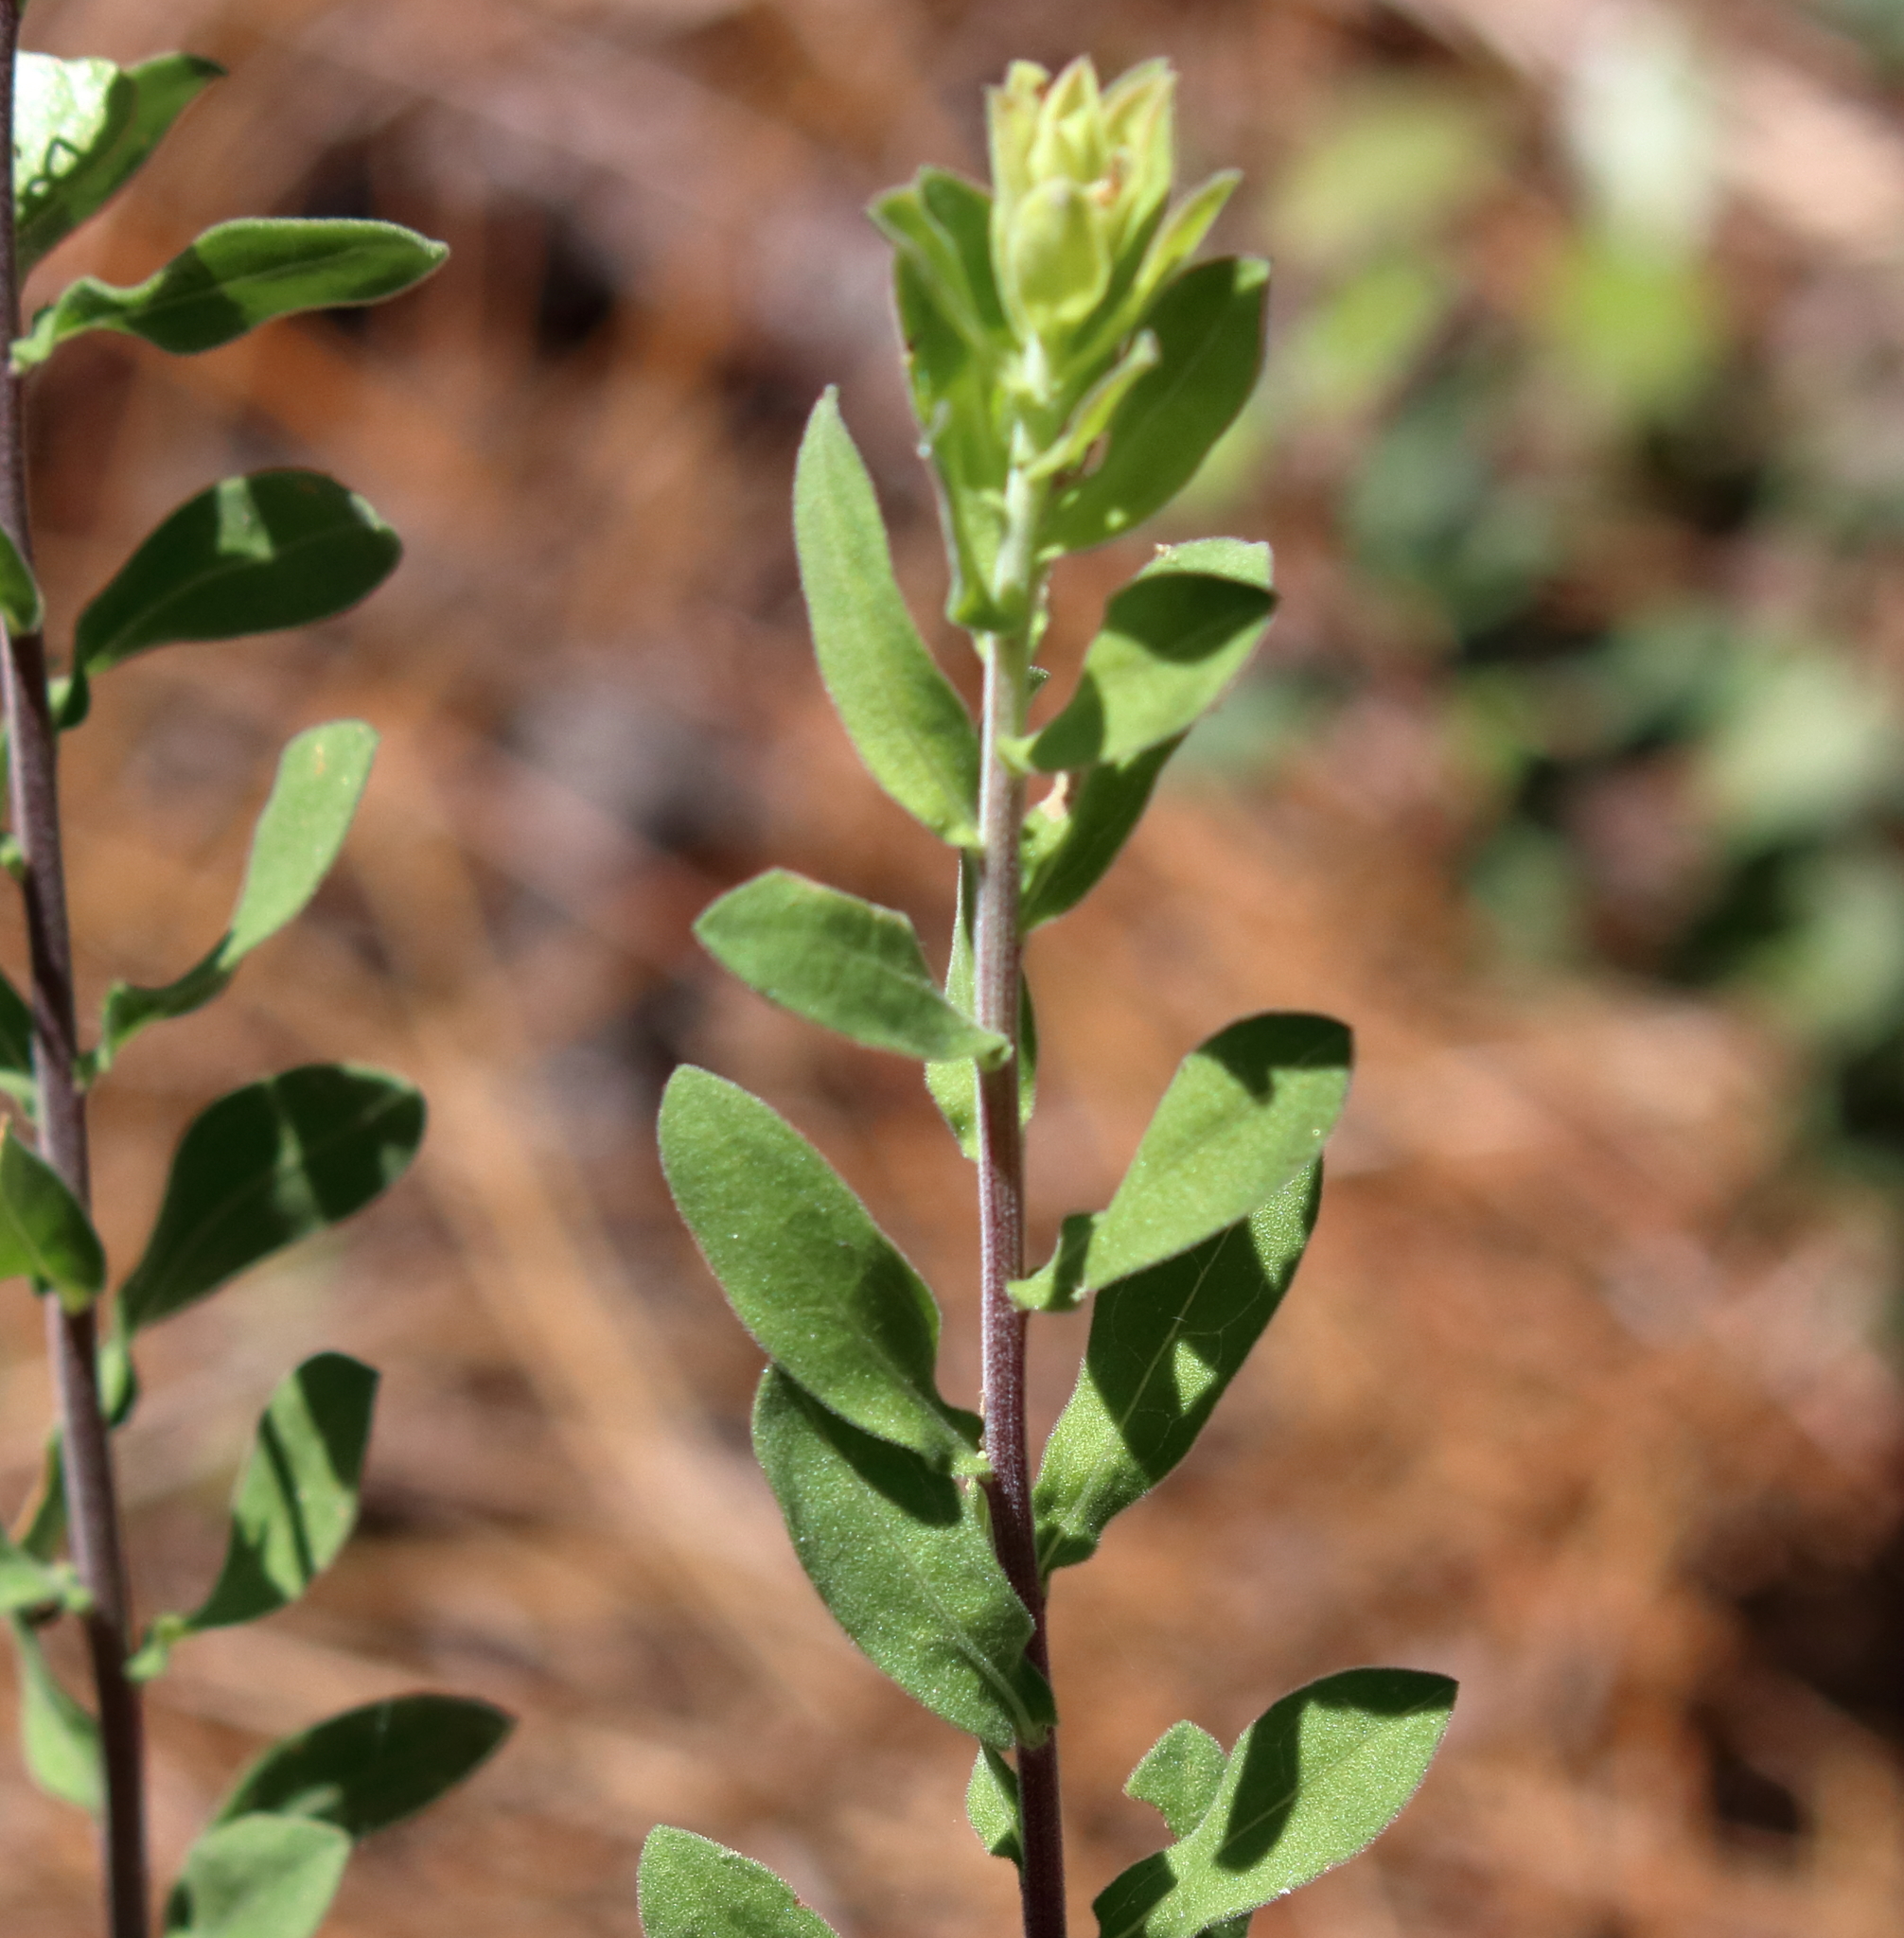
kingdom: Plantae
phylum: Tracheophyta
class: Magnoliopsida
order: Asterales
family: Asteraceae
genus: Sericocarpus
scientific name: Sericocarpus tortifolius
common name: Dixie aster
